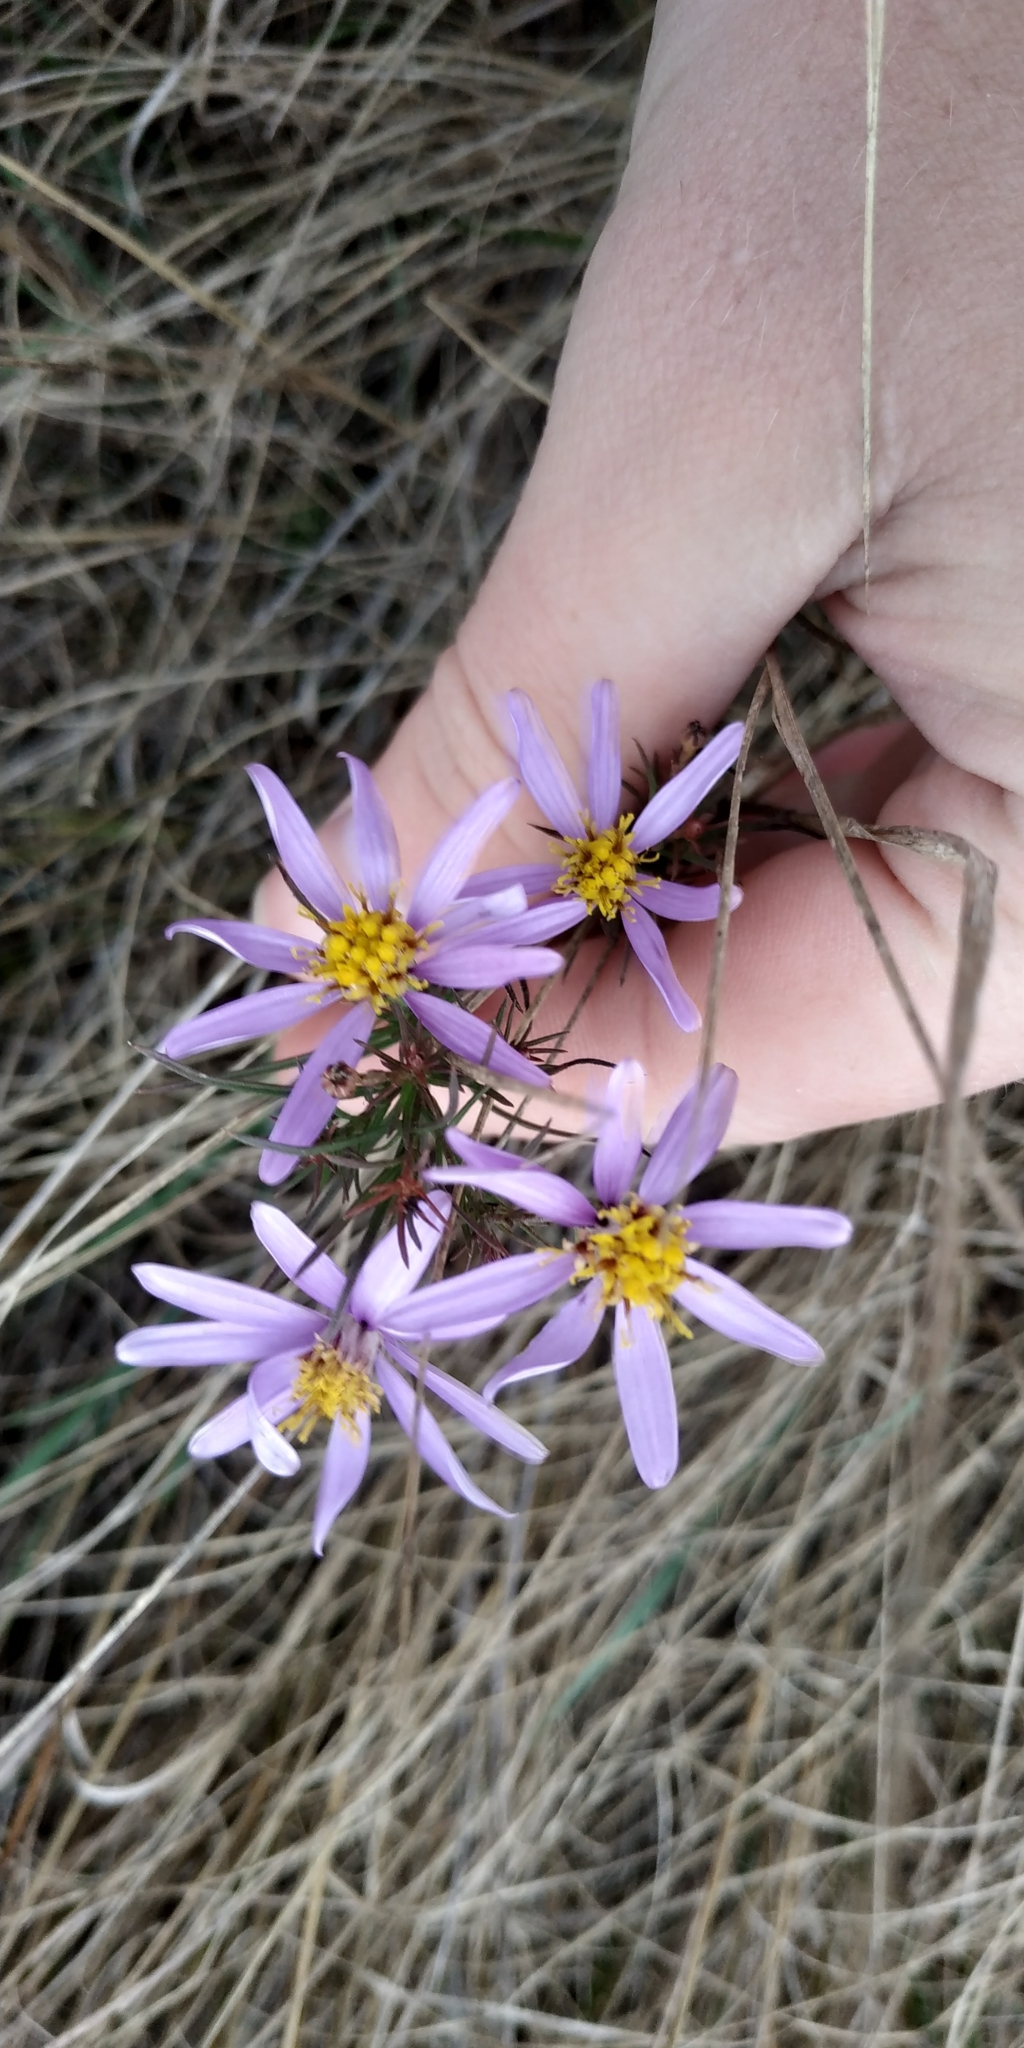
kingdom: Plantae
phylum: Tracheophyta
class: Magnoliopsida
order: Asterales
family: Asteraceae
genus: Galatella
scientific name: Galatella angustissima
